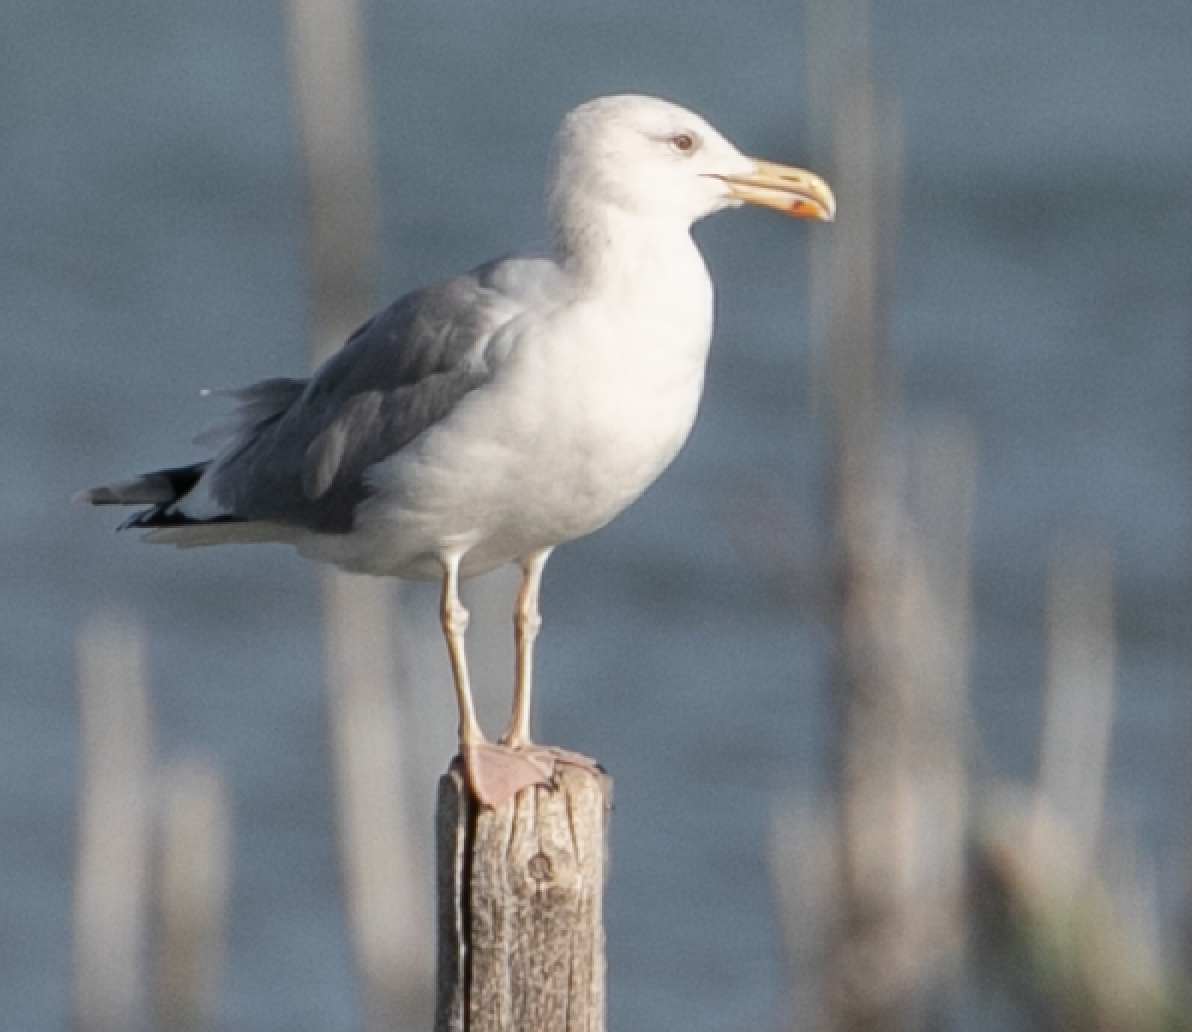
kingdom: Animalia
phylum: Chordata
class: Aves
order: Charadriiformes
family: Laridae
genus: Larus
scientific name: Larus cachinnans
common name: Caspian gull
